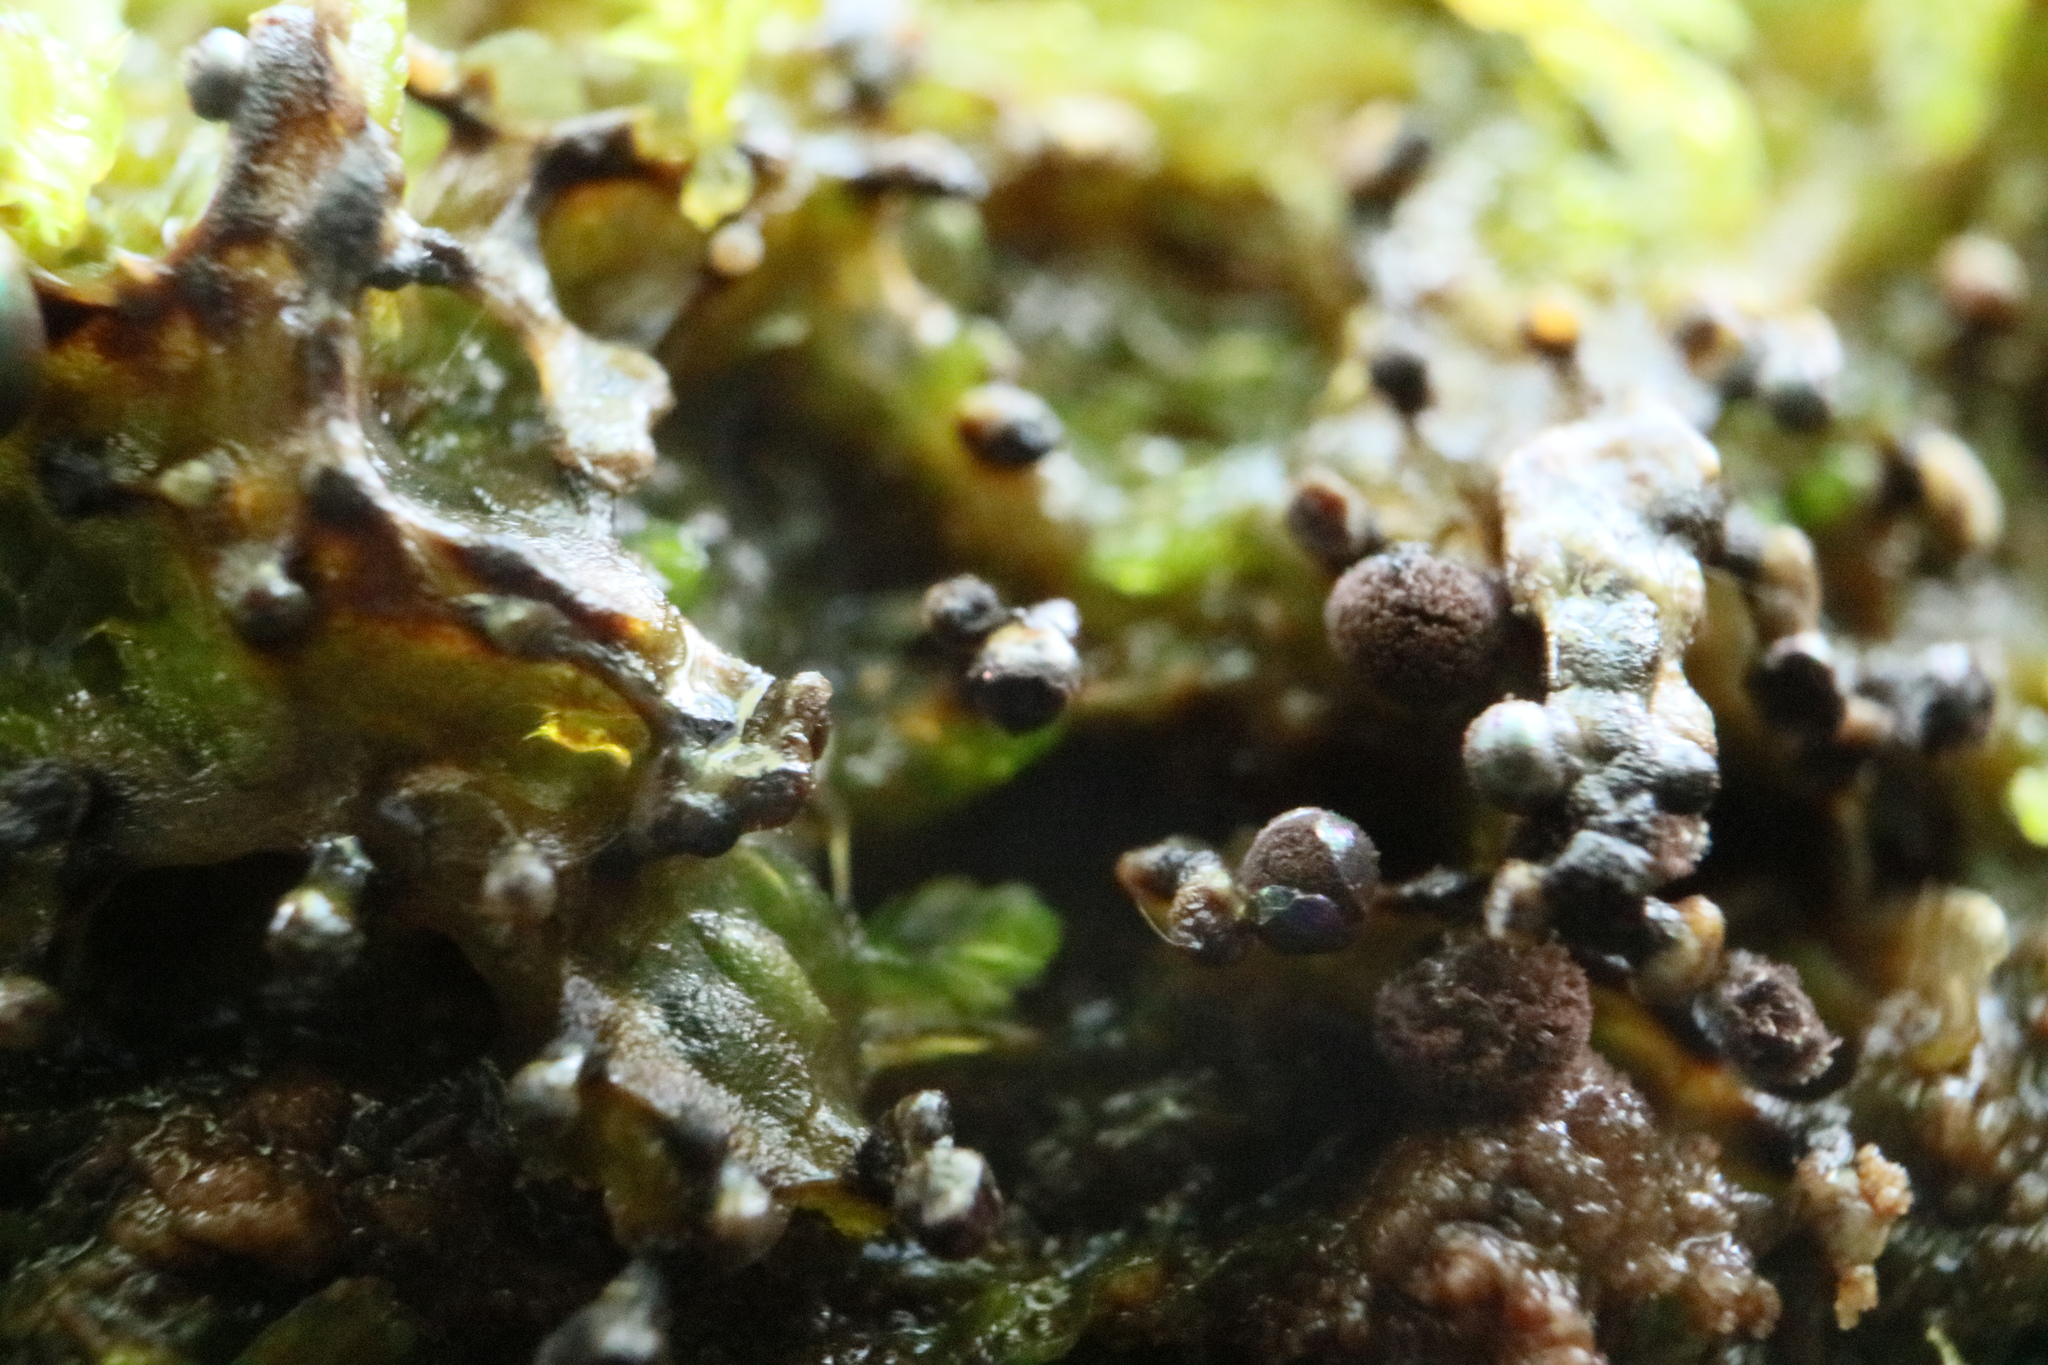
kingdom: Protozoa
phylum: Mycetozoa
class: Myxomycetes
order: Physarales
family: Elaeomyxaceae
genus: Elaeomyxa
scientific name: Elaeomyxa cerifera
